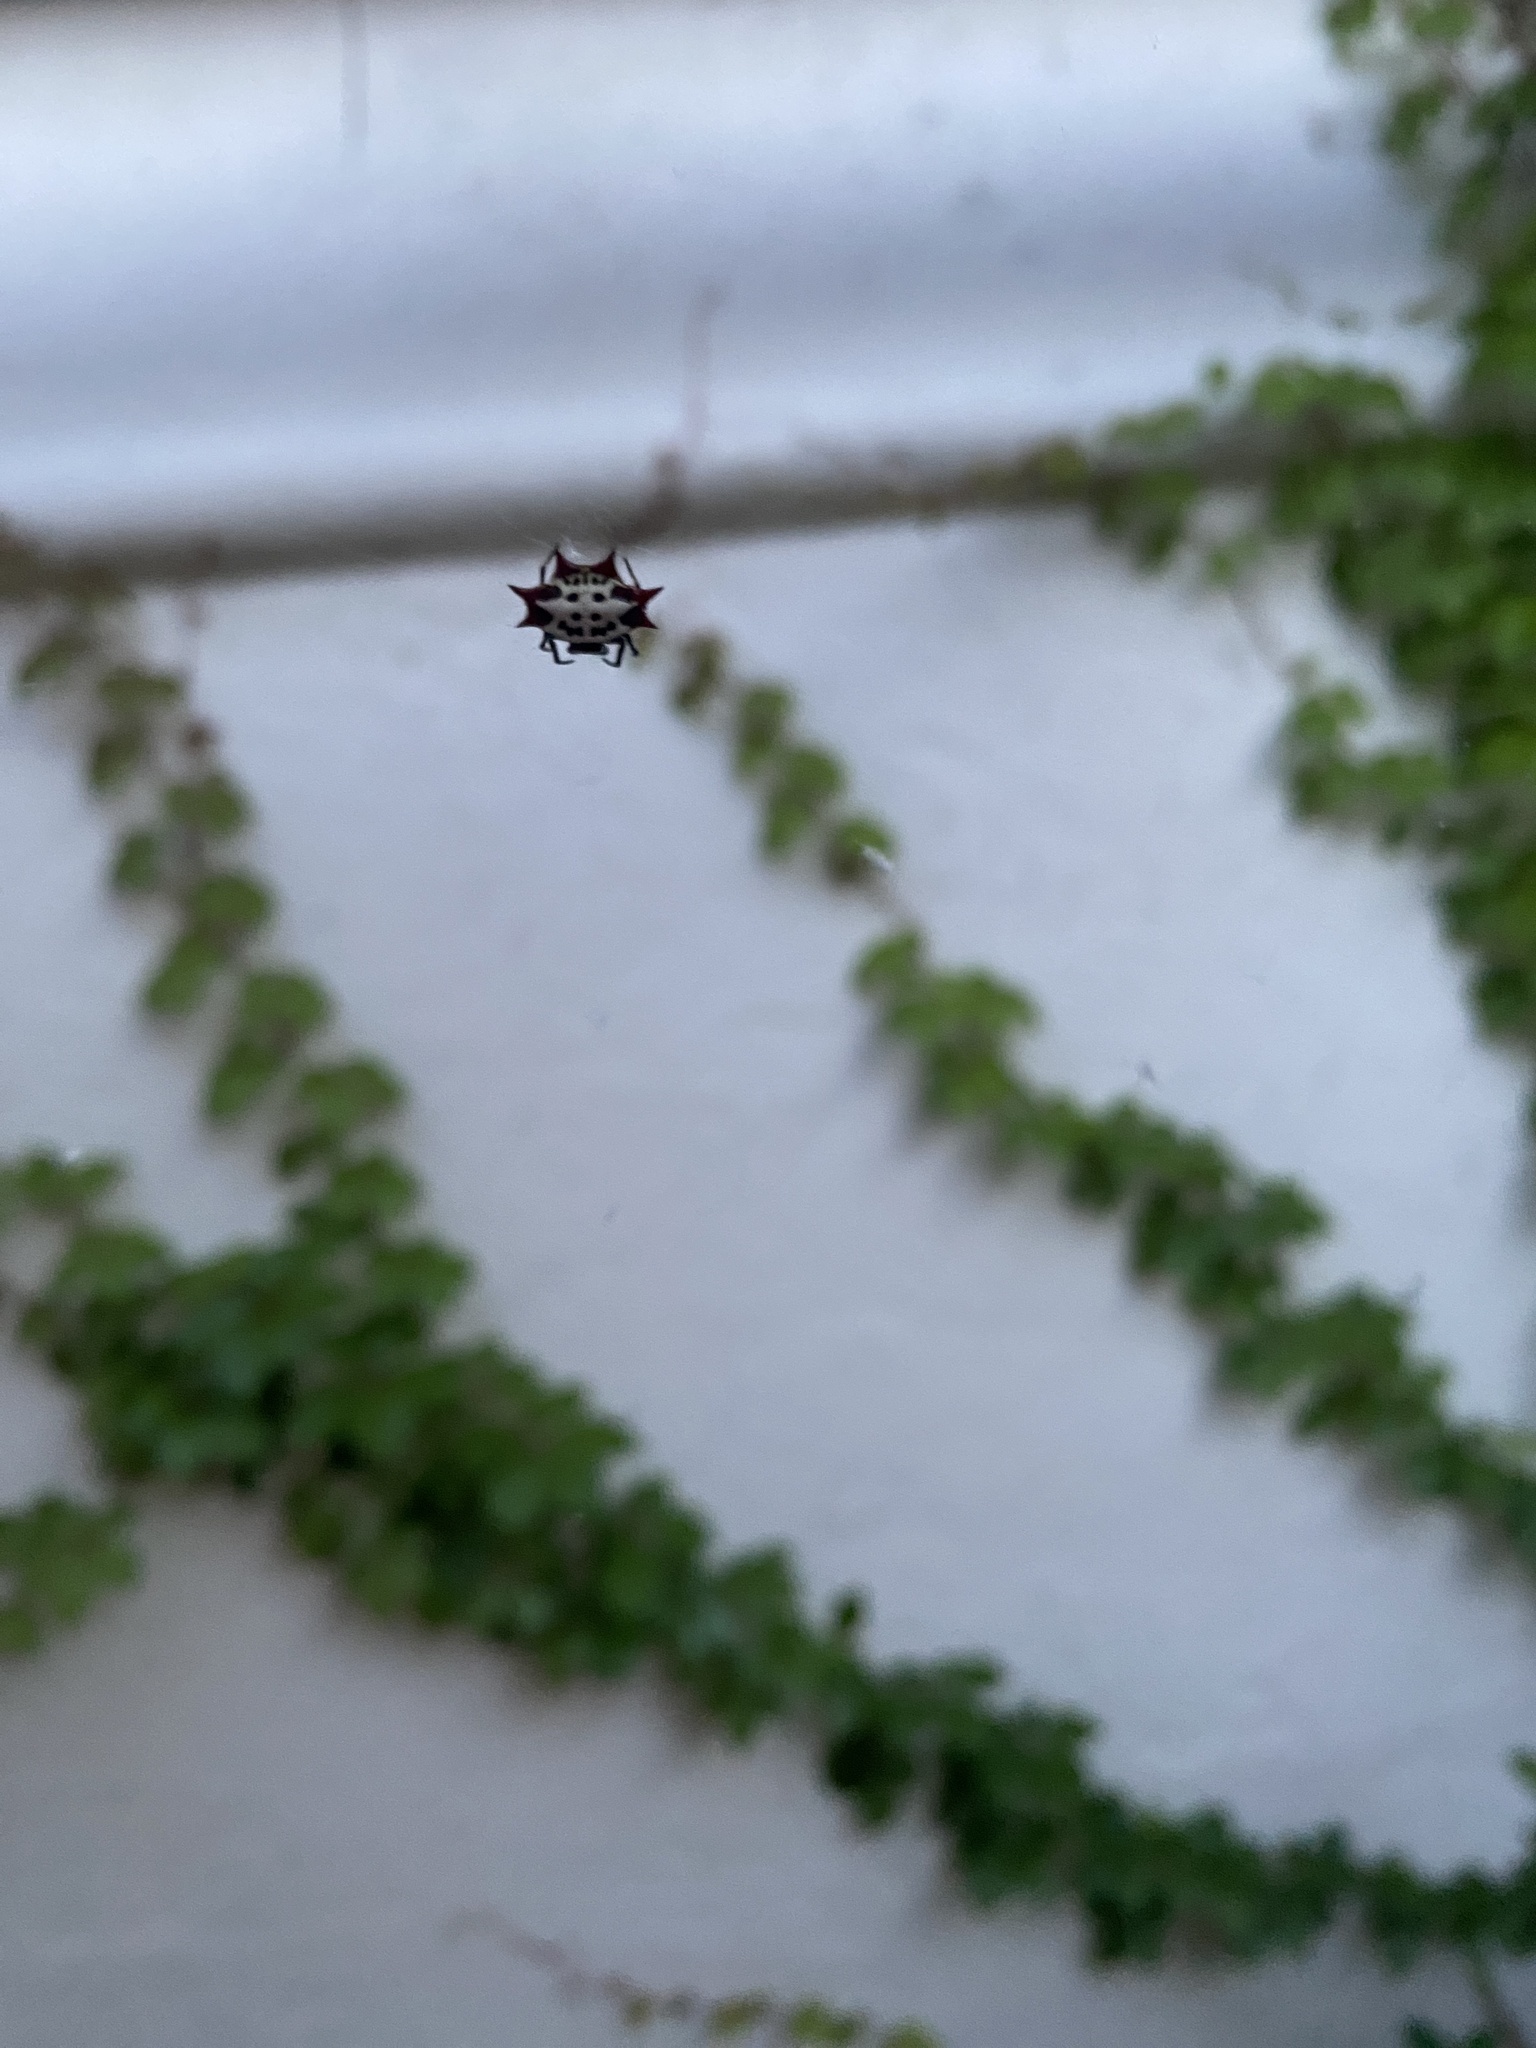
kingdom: Animalia
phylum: Arthropoda
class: Arachnida
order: Araneae
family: Araneidae
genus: Gasteracantha
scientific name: Gasteracantha cancriformis
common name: Orb weavers
